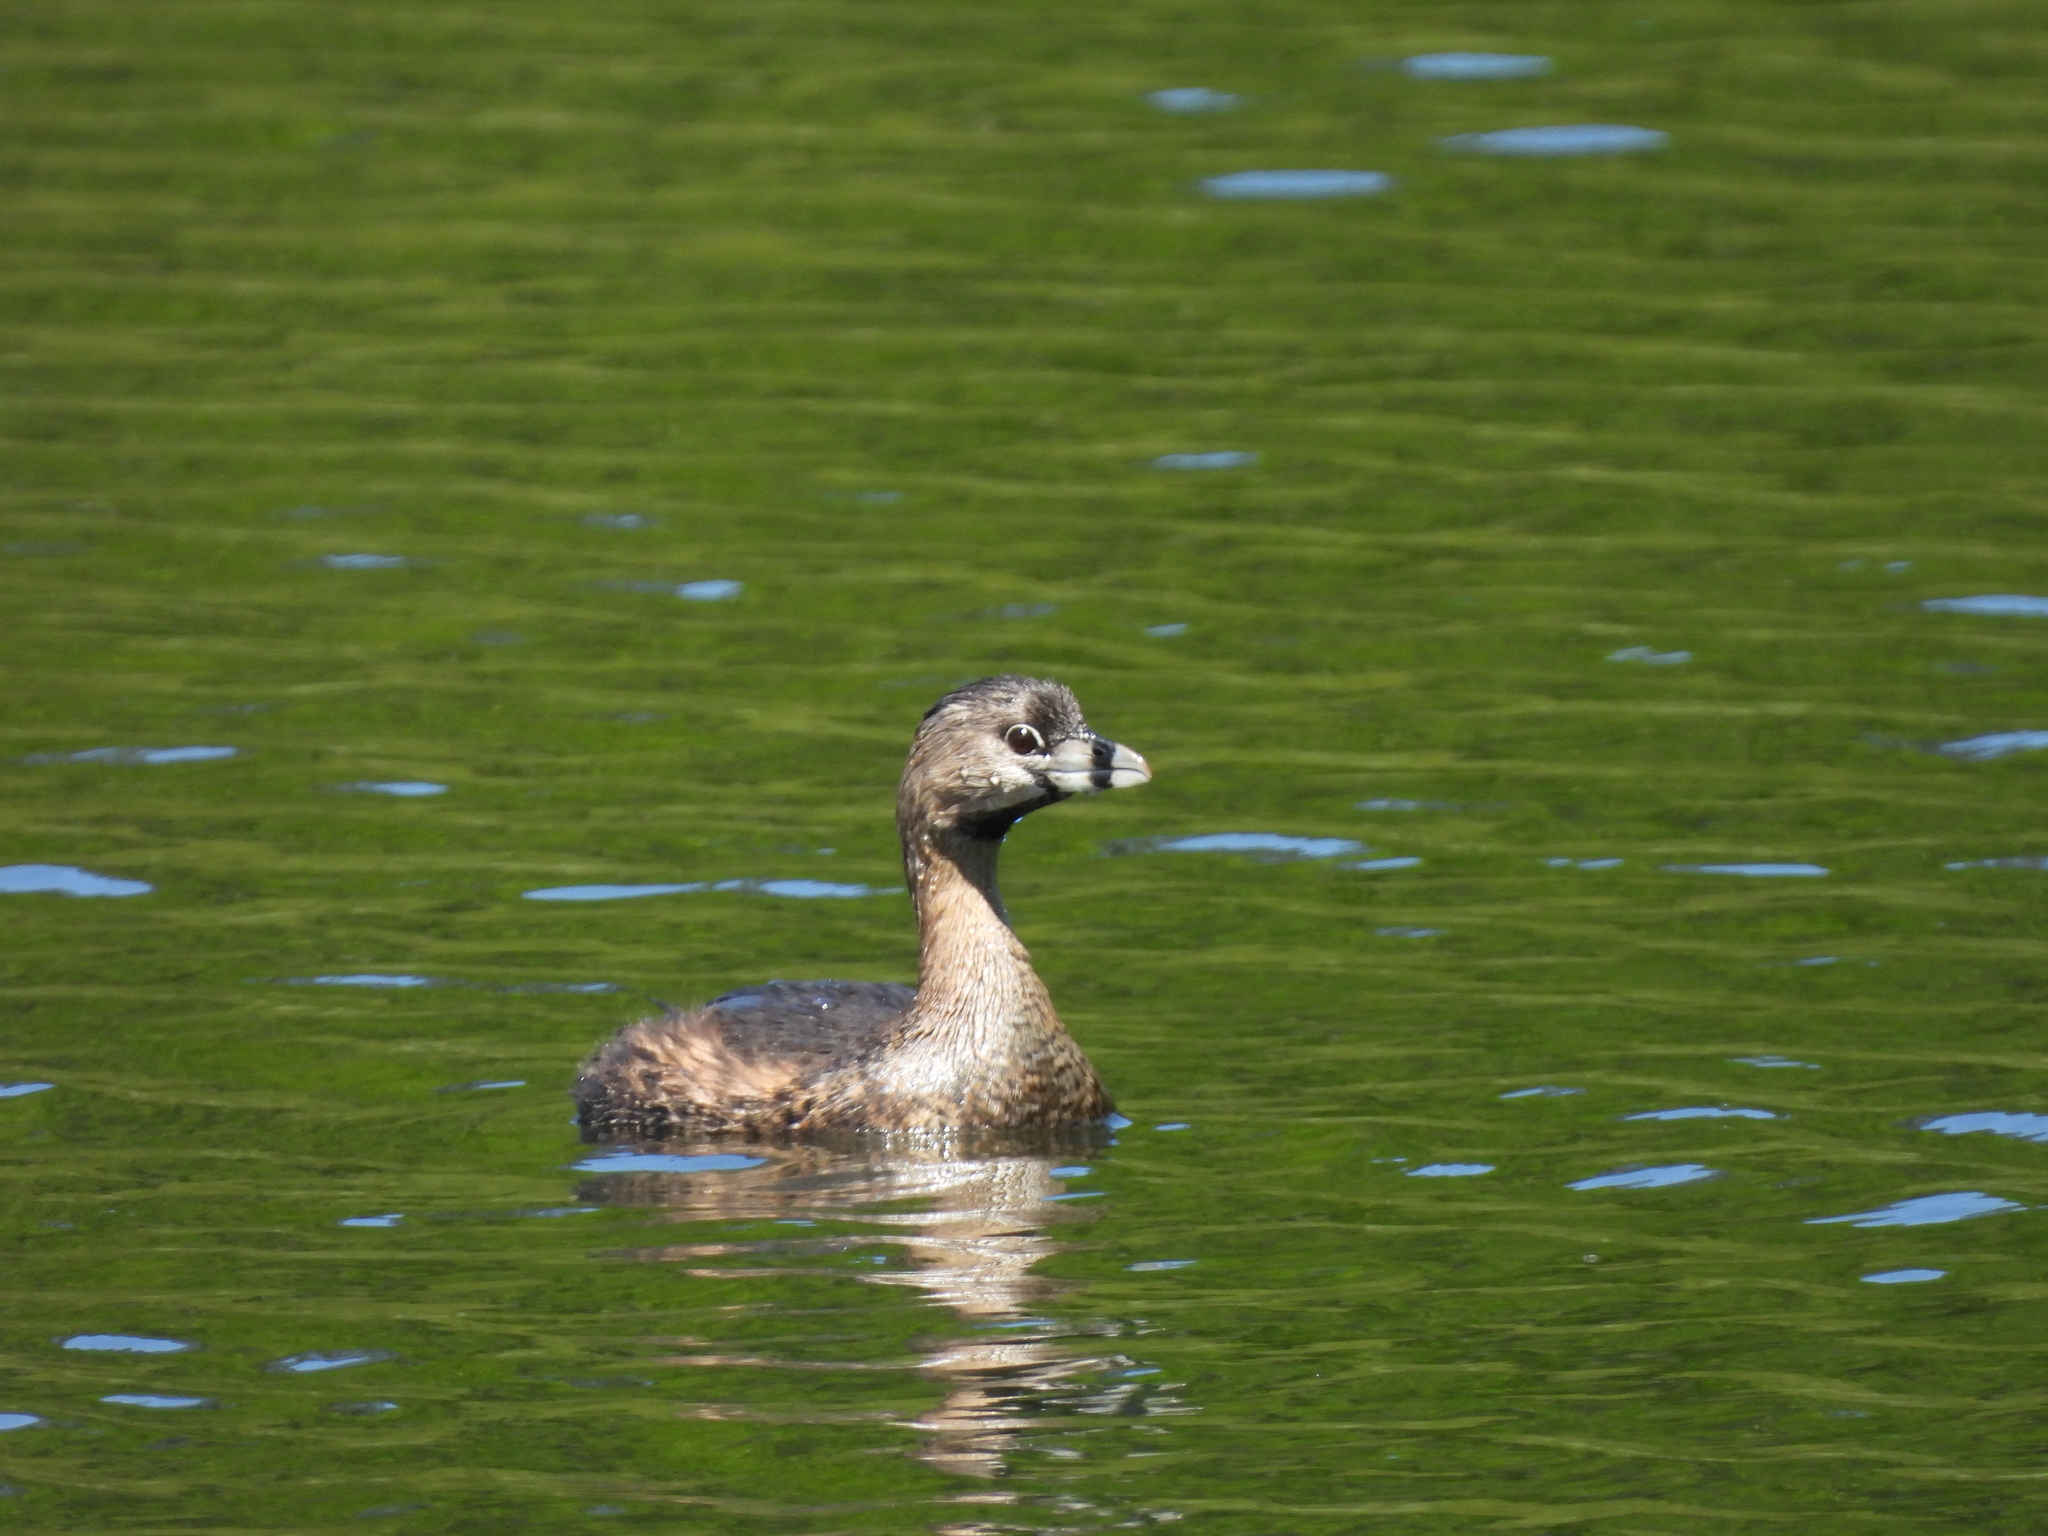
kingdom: Animalia
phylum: Chordata
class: Aves
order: Podicipediformes
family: Podicipedidae
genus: Podilymbus
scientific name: Podilymbus podiceps
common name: Pied-billed grebe
